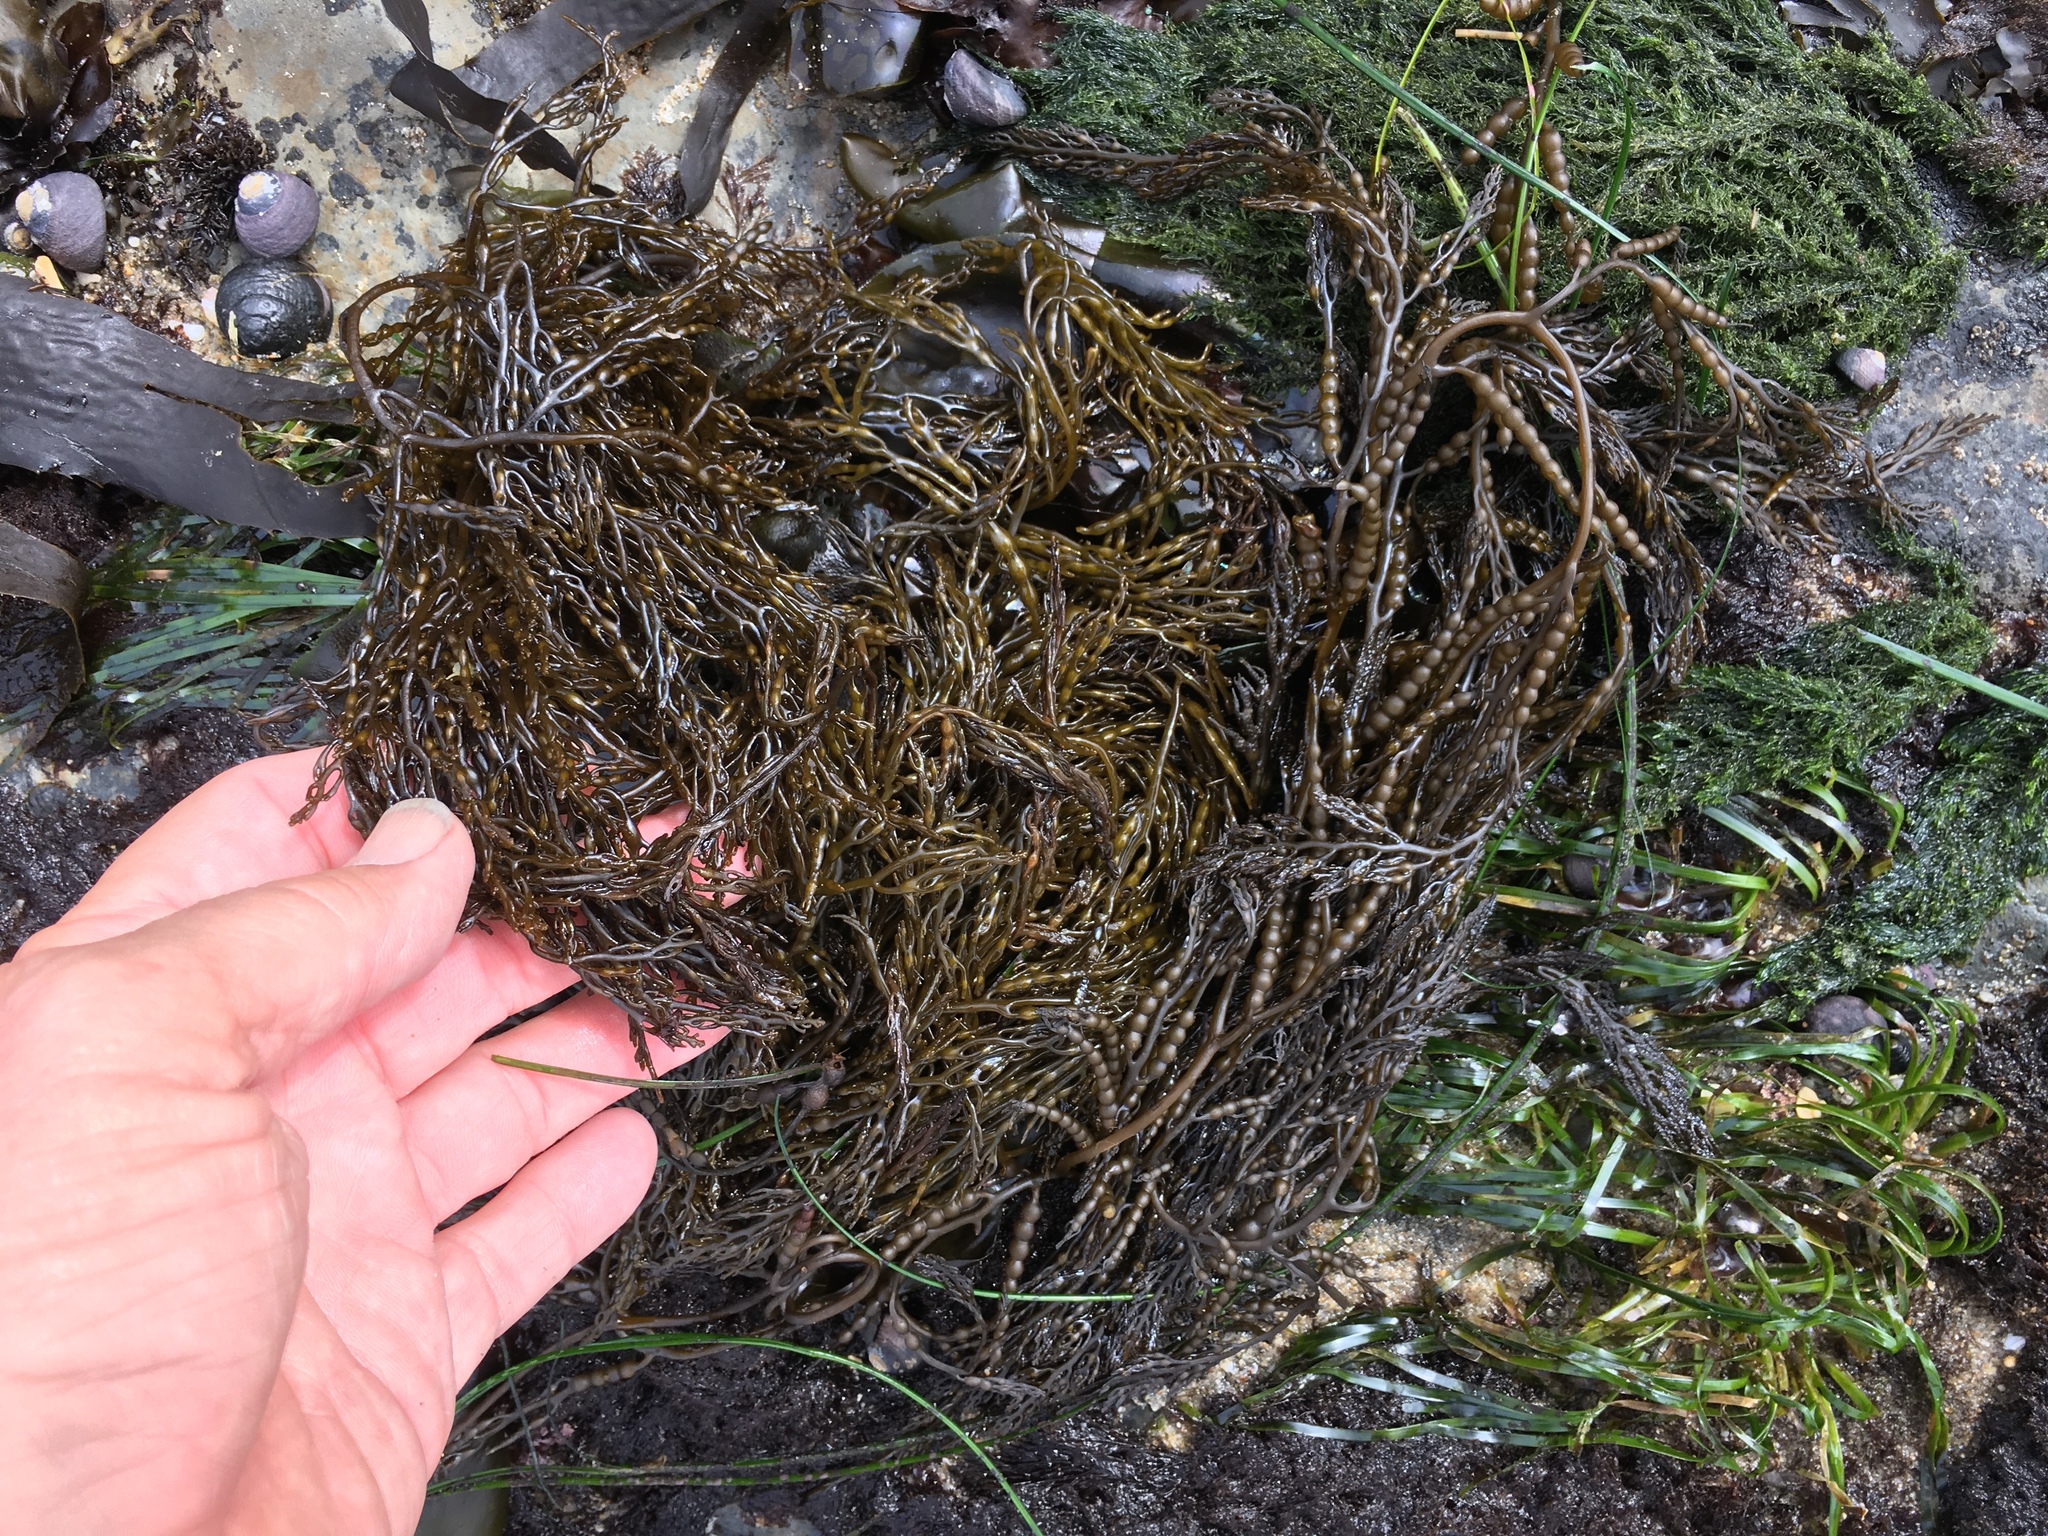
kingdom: Chromista
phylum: Ochrophyta
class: Phaeophyceae
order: Fucales
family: Sargassaceae
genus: Stephanocystis
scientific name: Stephanocystis
